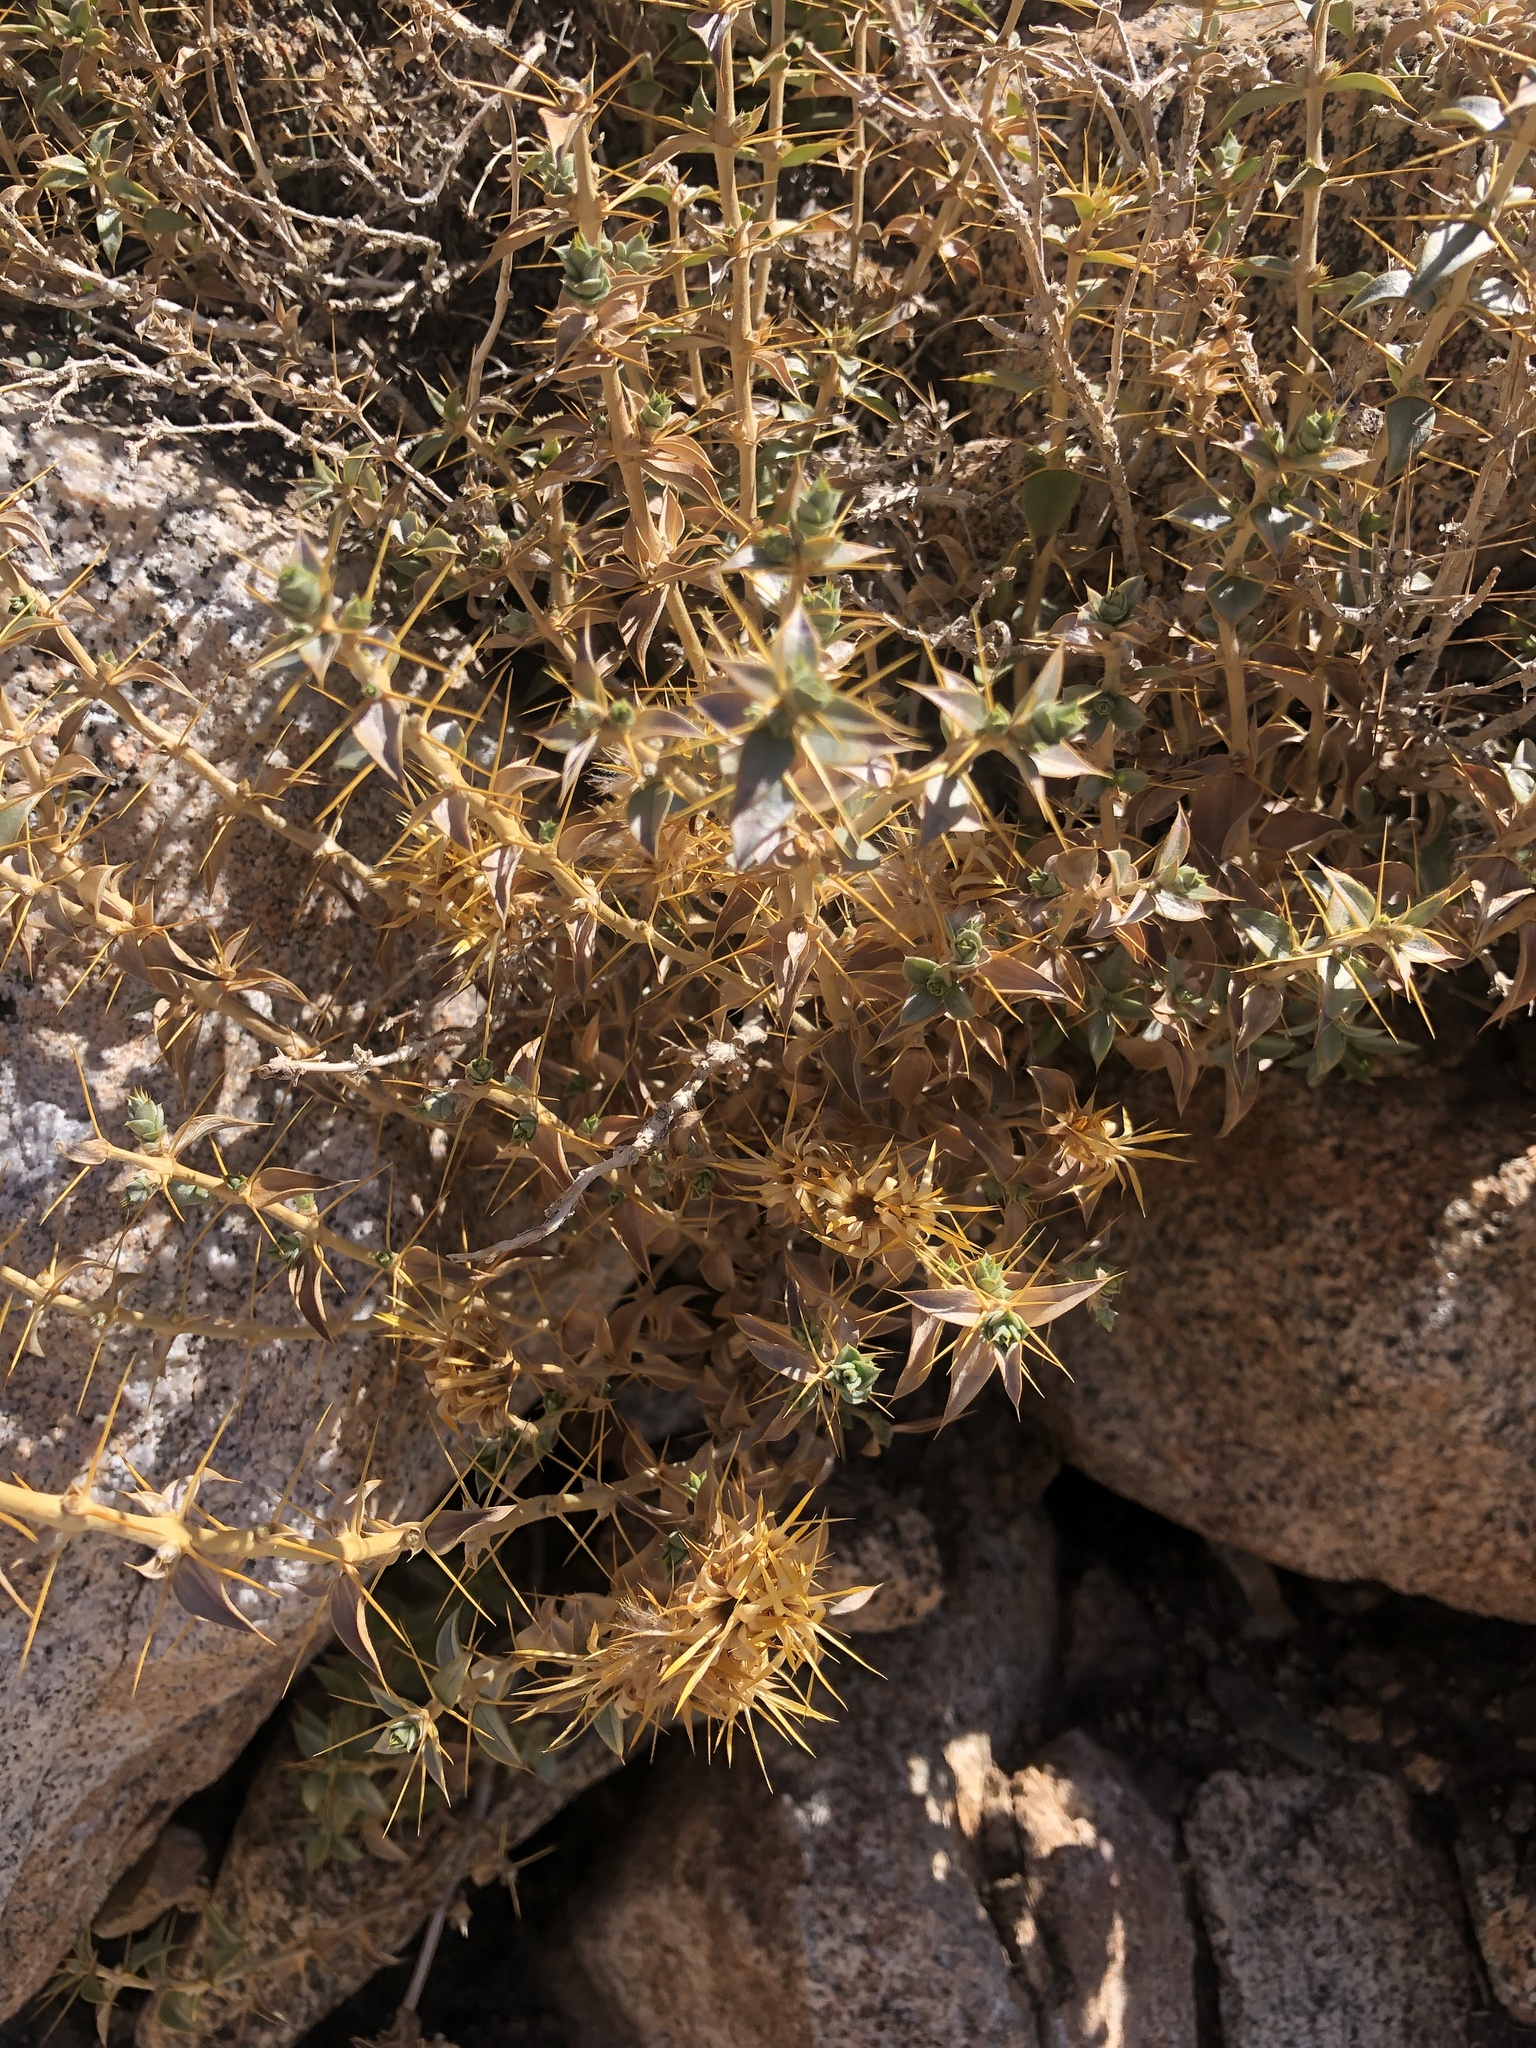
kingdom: Plantae
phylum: Tracheophyta
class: Magnoliopsida
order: Asterales
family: Asteraceae
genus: Chuquiraga
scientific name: Chuquiraga oppositifolia
